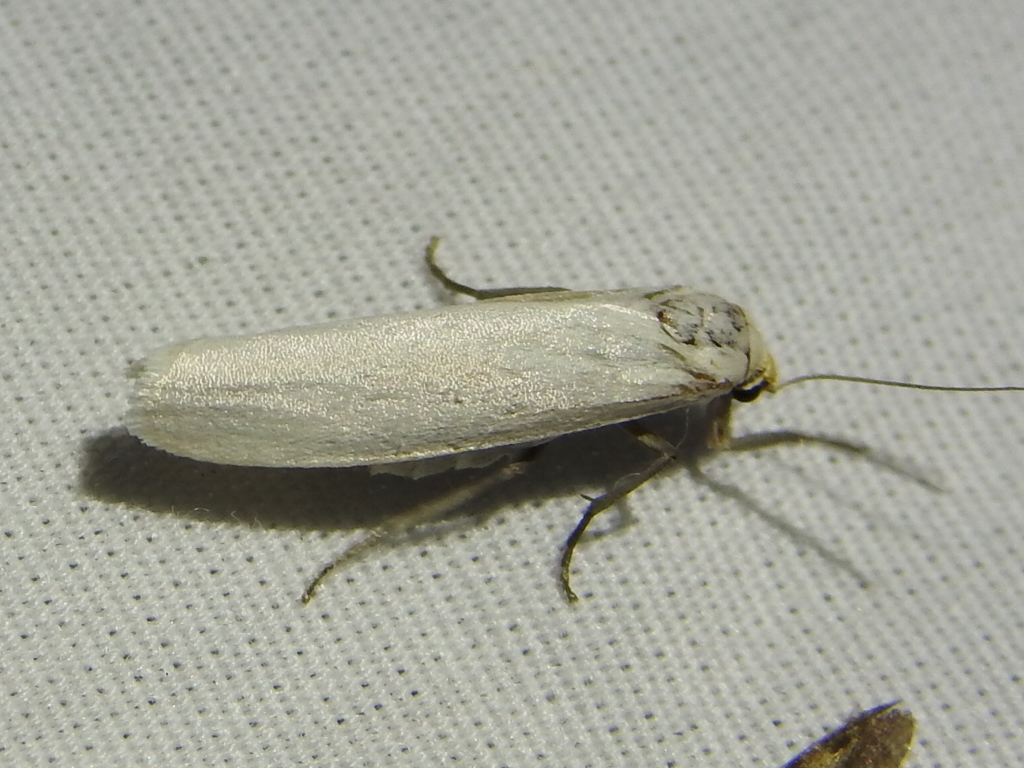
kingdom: Animalia
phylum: Arthropoda
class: Insecta
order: Lepidoptera
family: Erebidae
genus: Crambidia
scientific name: Crambidia cephalica
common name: Yellow-headed lichen moth
